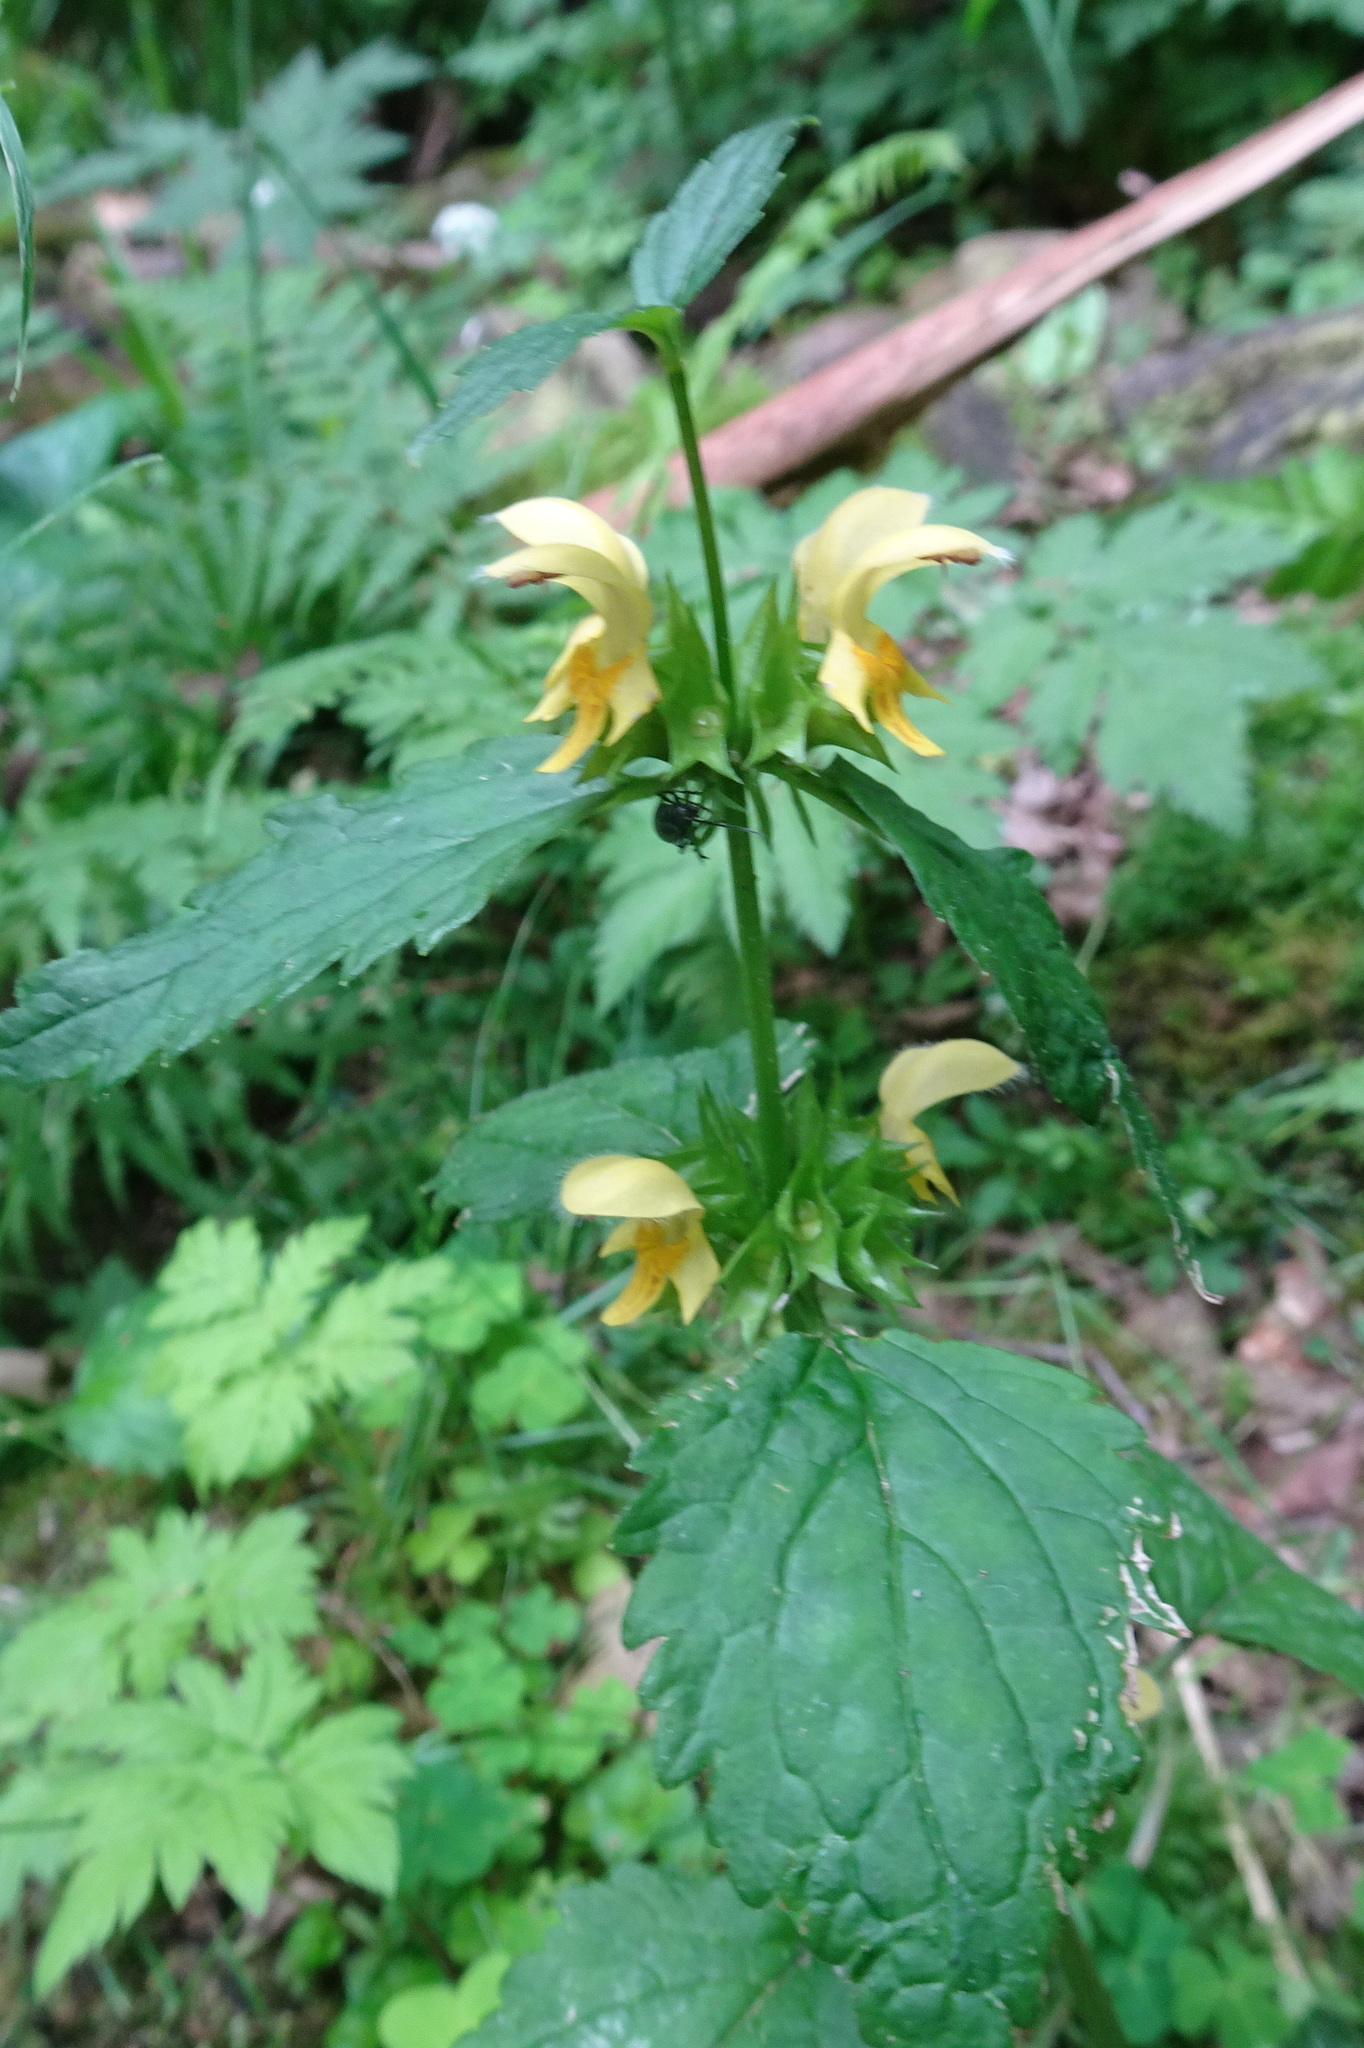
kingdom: Plantae
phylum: Tracheophyta
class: Magnoliopsida
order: Lamiales
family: Lamiaceae
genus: Lamium
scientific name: Lamium galeobdolon
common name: Yellow archangel
